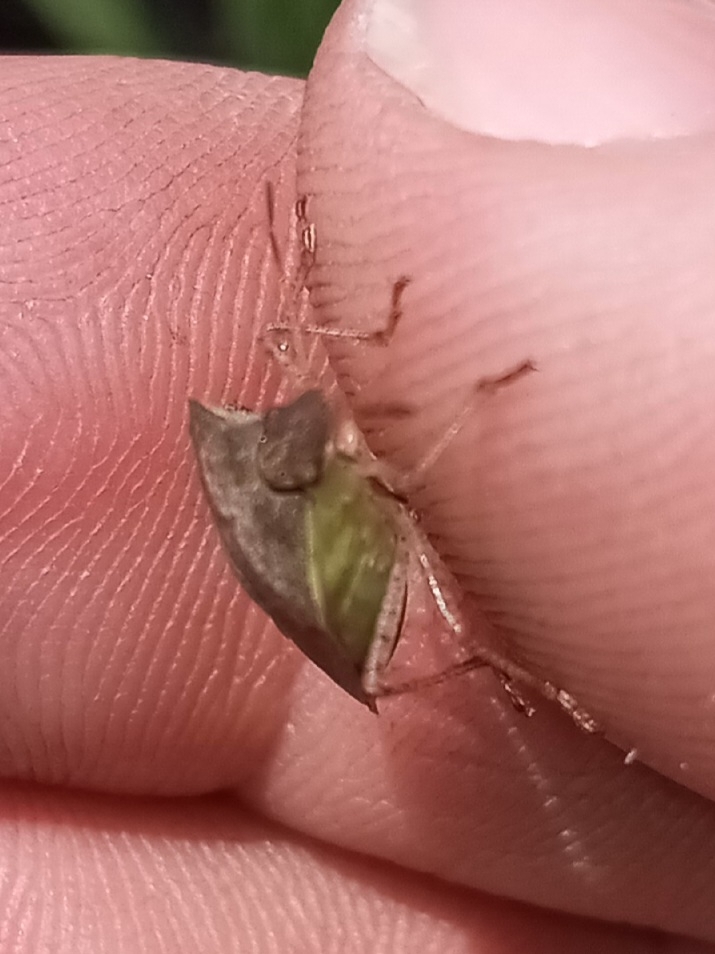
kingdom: Animalia
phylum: Arthropoda
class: Insecta
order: Hemiptera
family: Pentatomidae
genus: Euschistus
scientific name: Euschistus servus
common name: Brown stink bug
